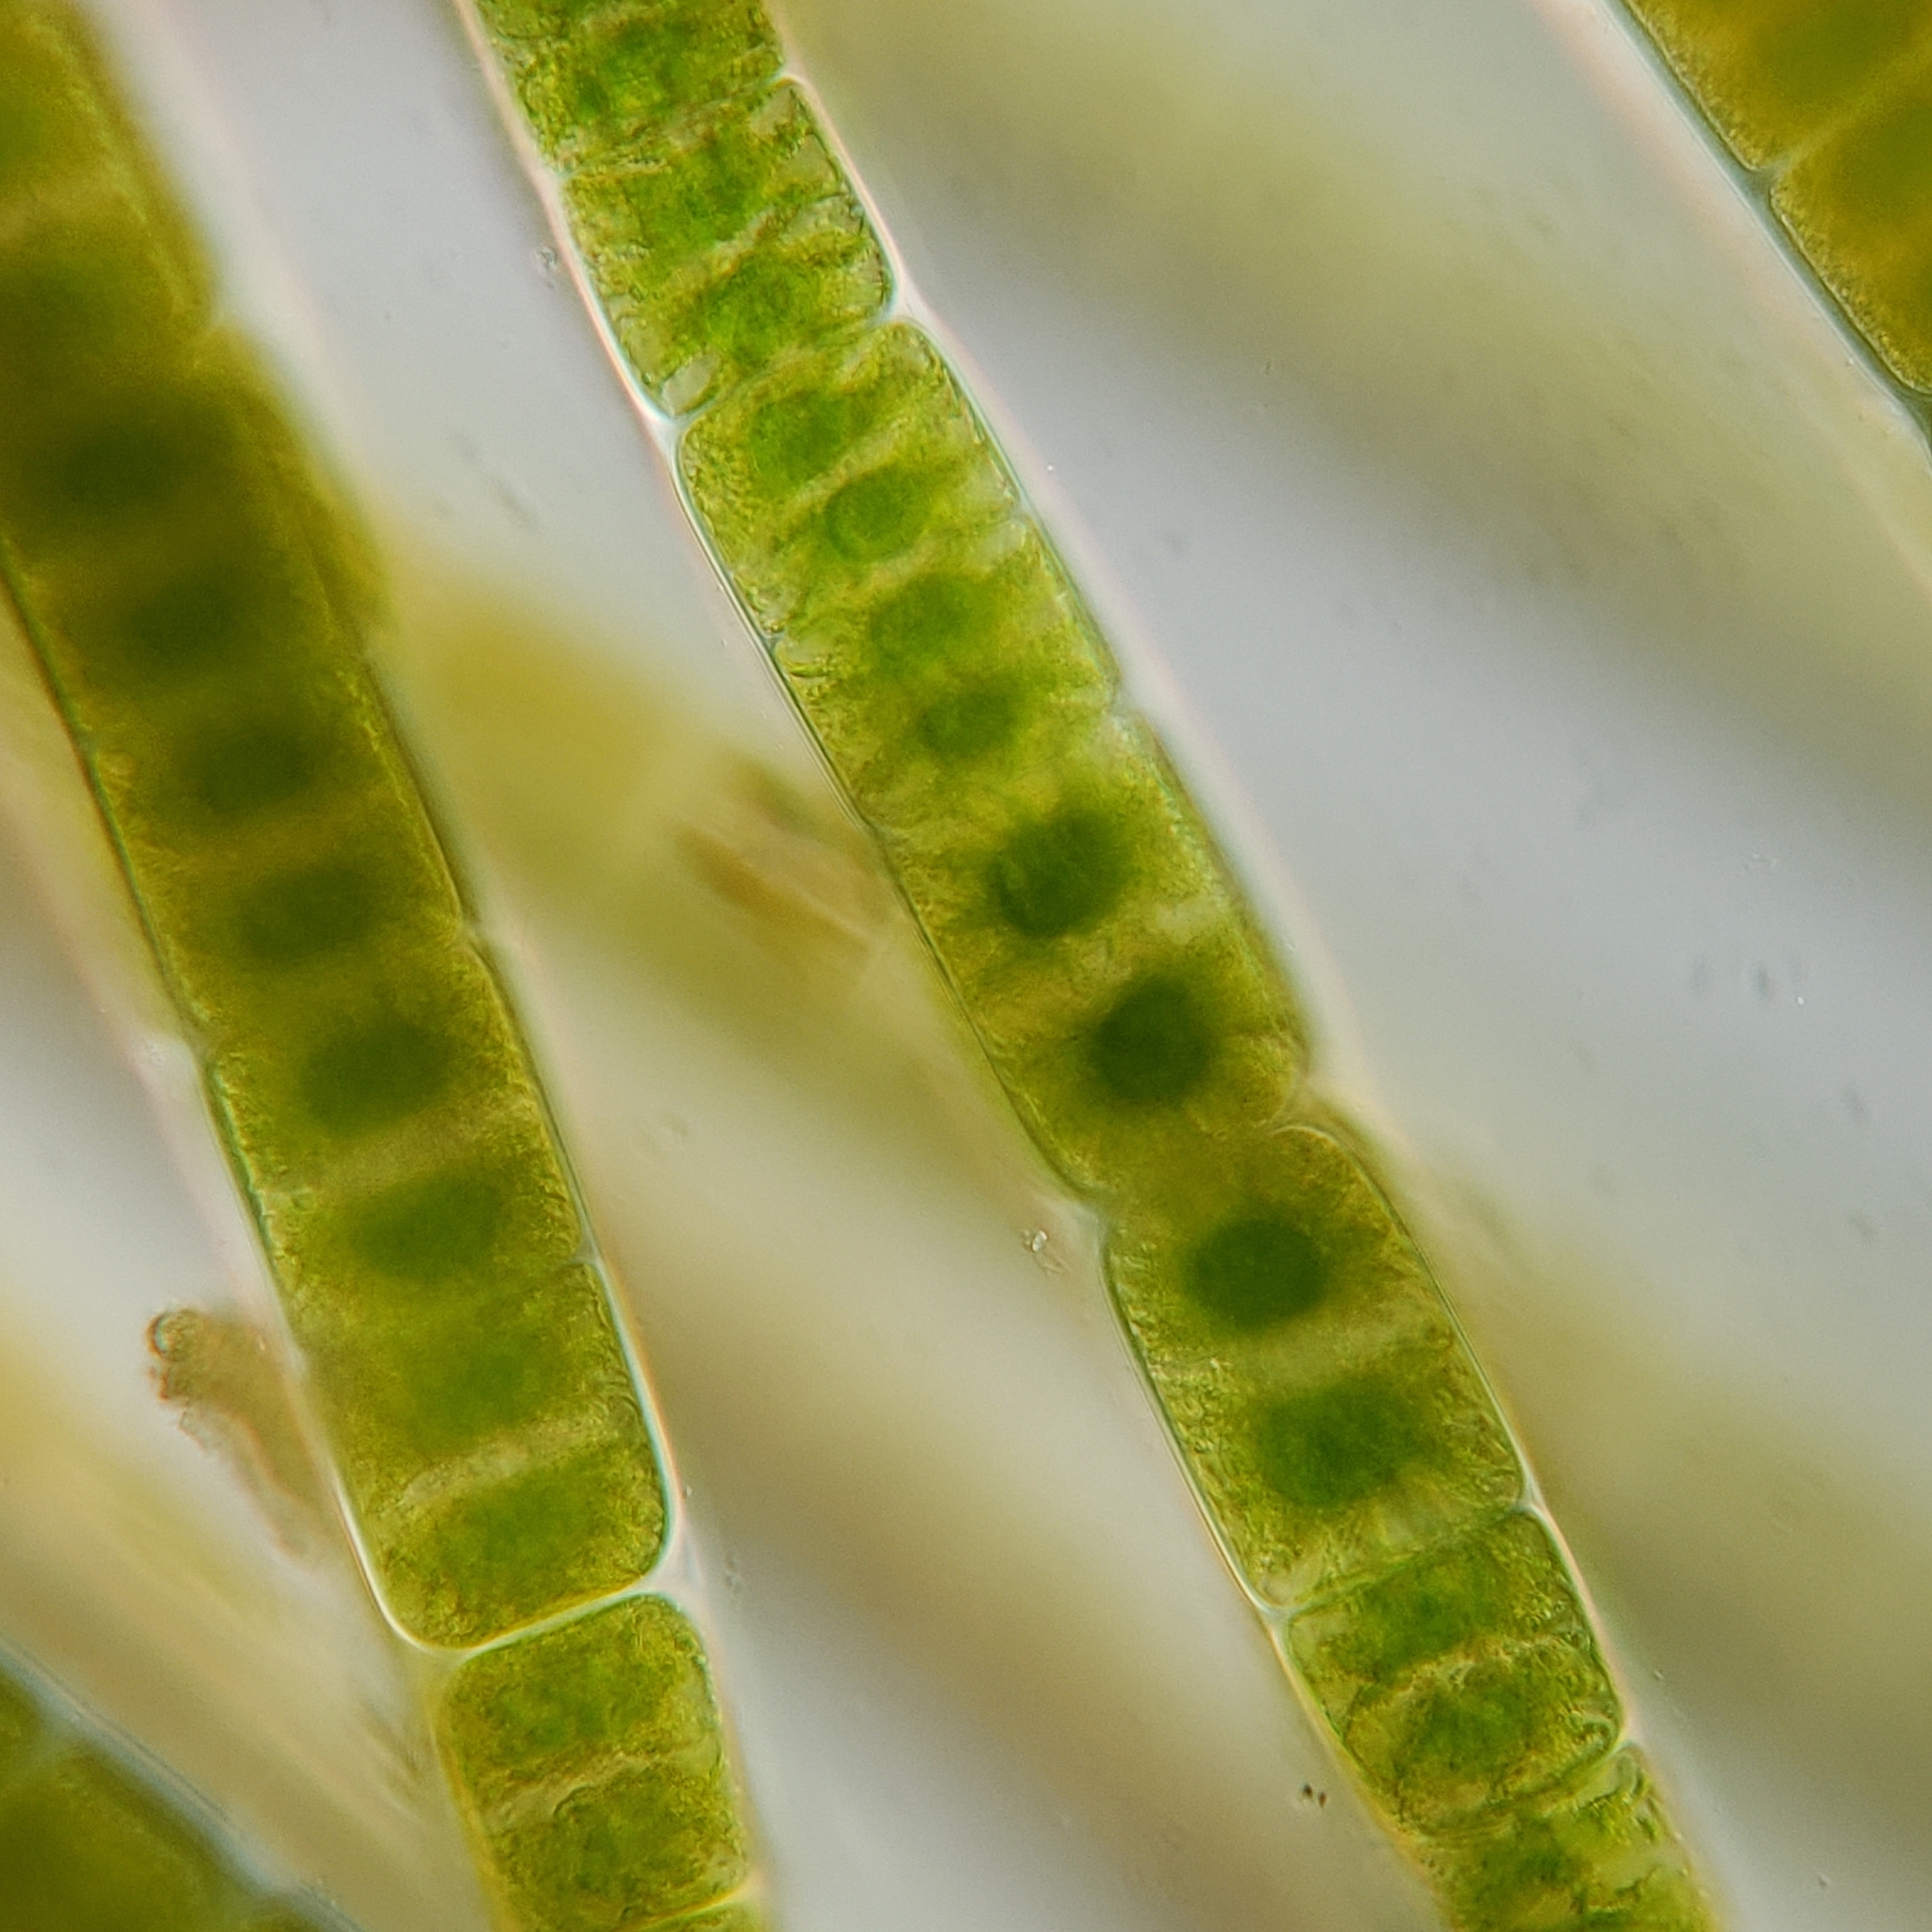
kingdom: Plantae
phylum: Charophyta
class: Zygnematophyceae
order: Zygnematales
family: Zygnemataceae
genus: Zygnema
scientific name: Zygnema
